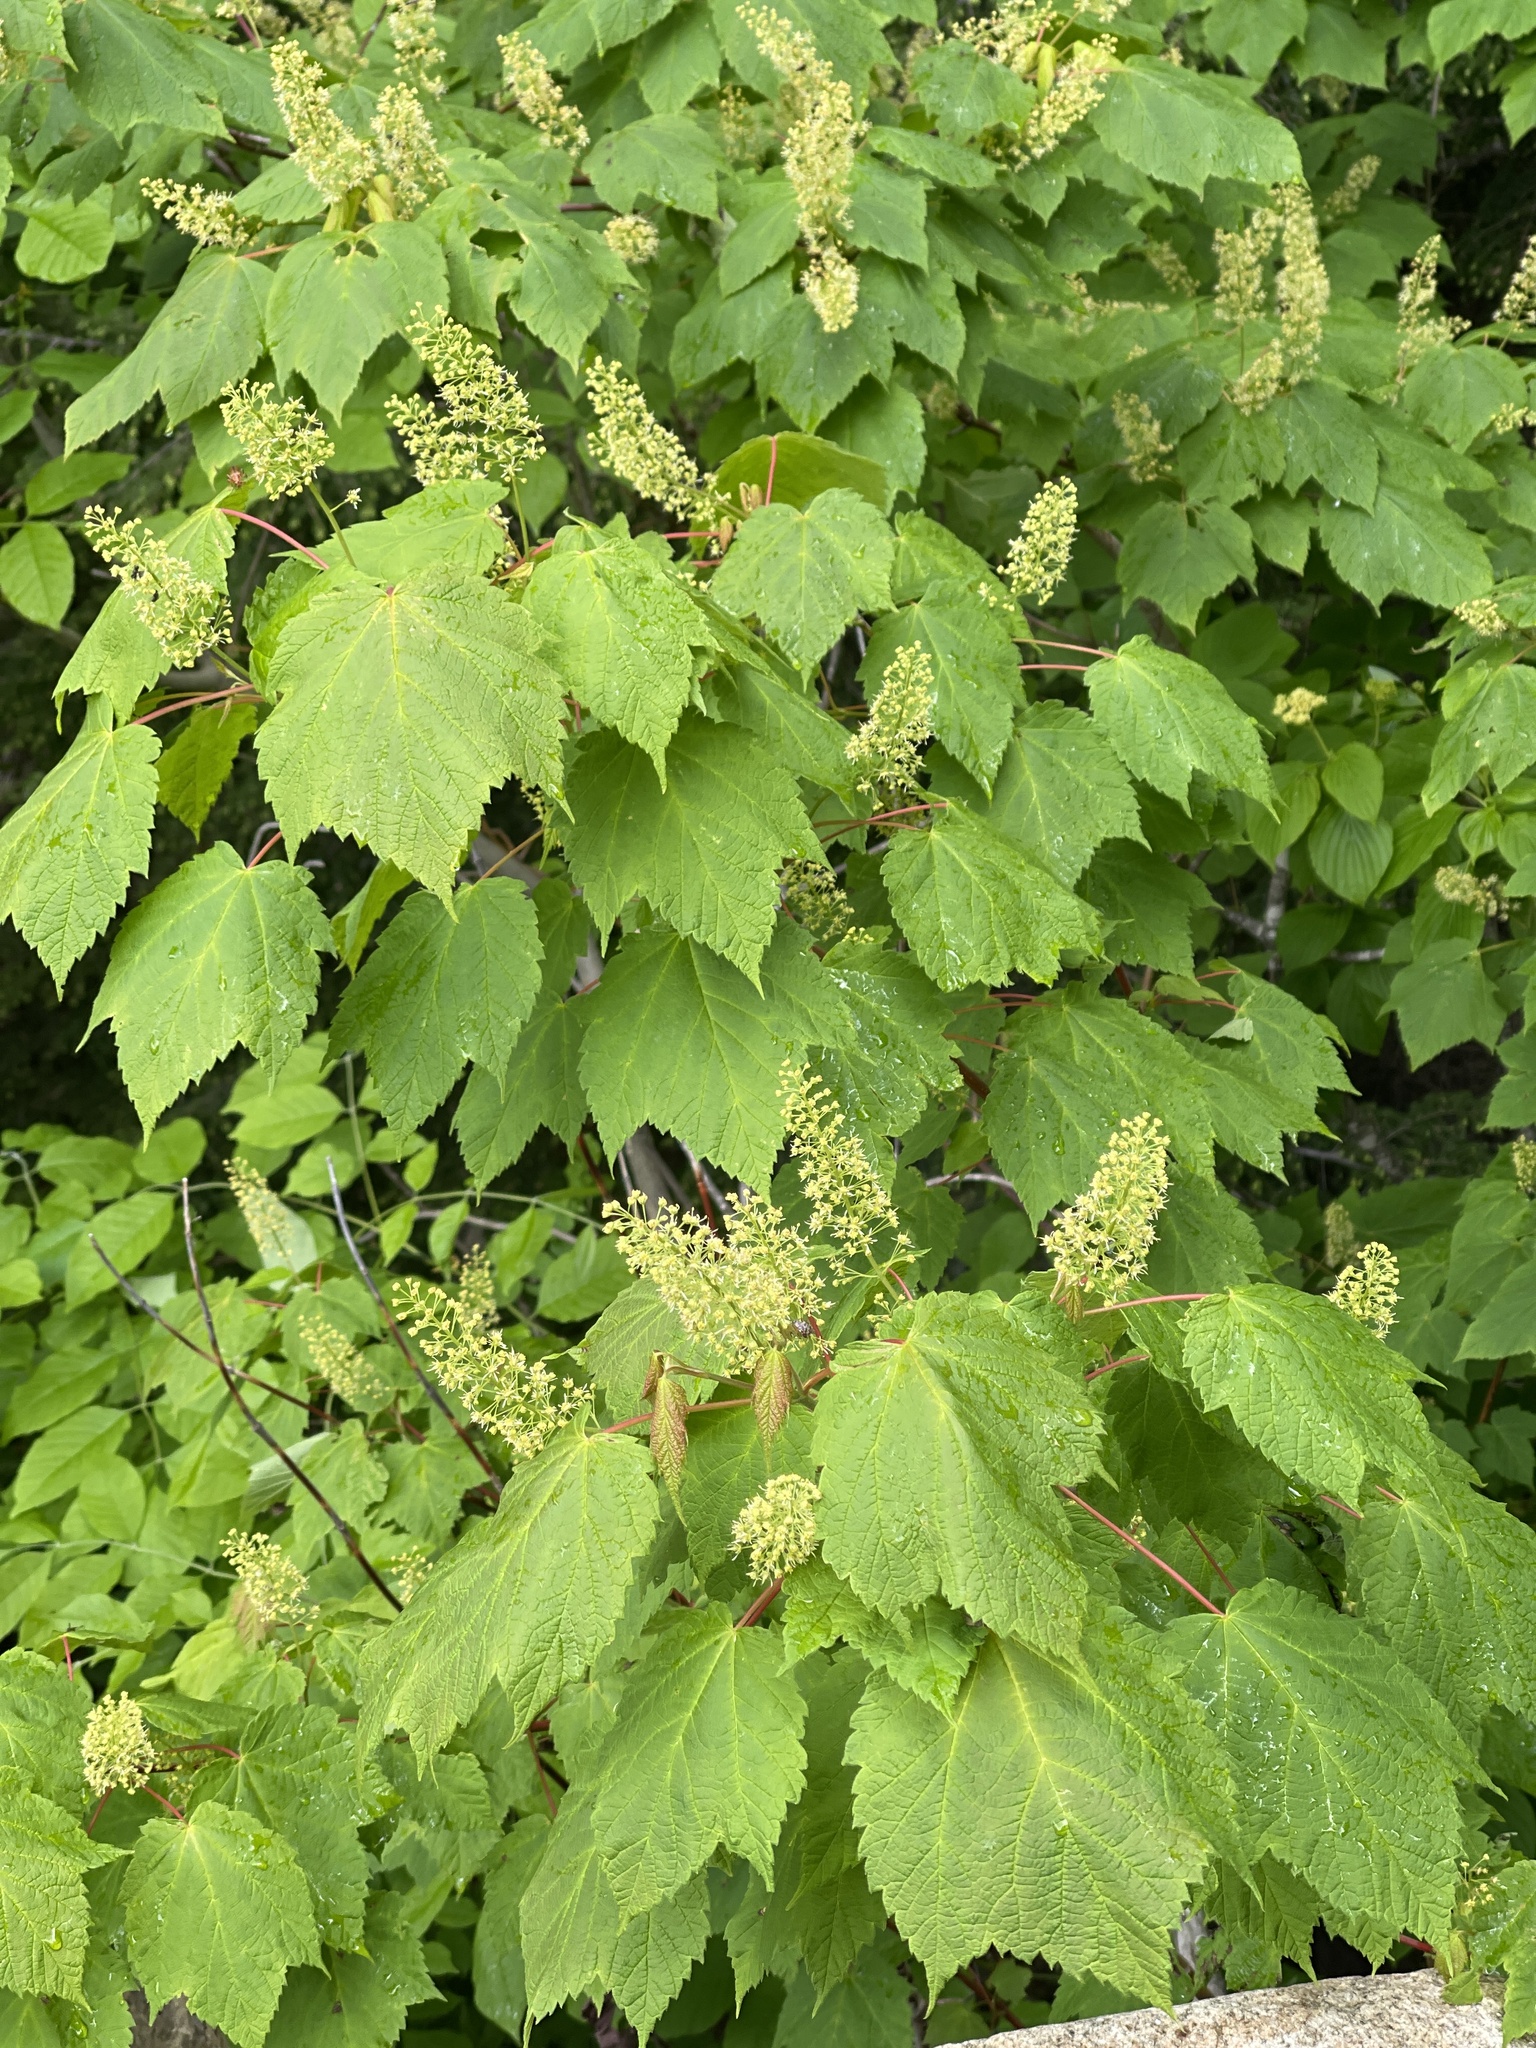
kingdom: Plantae
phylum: Tracheophyta
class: Magnoliopsida
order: Sapindales
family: Sapindaceae
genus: Acer
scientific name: Acer spicatum
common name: Mountain maple
